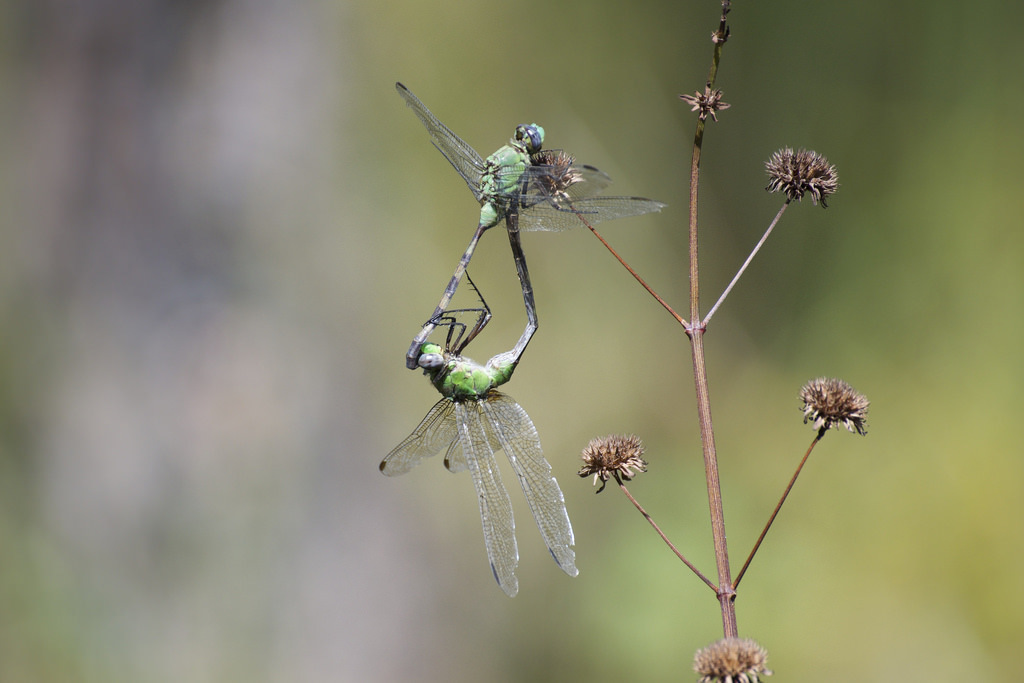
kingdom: Animalia
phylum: Arthropoda
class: Insecta
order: Odonata
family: Libellulidae
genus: Erythemis
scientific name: Erythemis vesiculosa
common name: Great pondhawk
